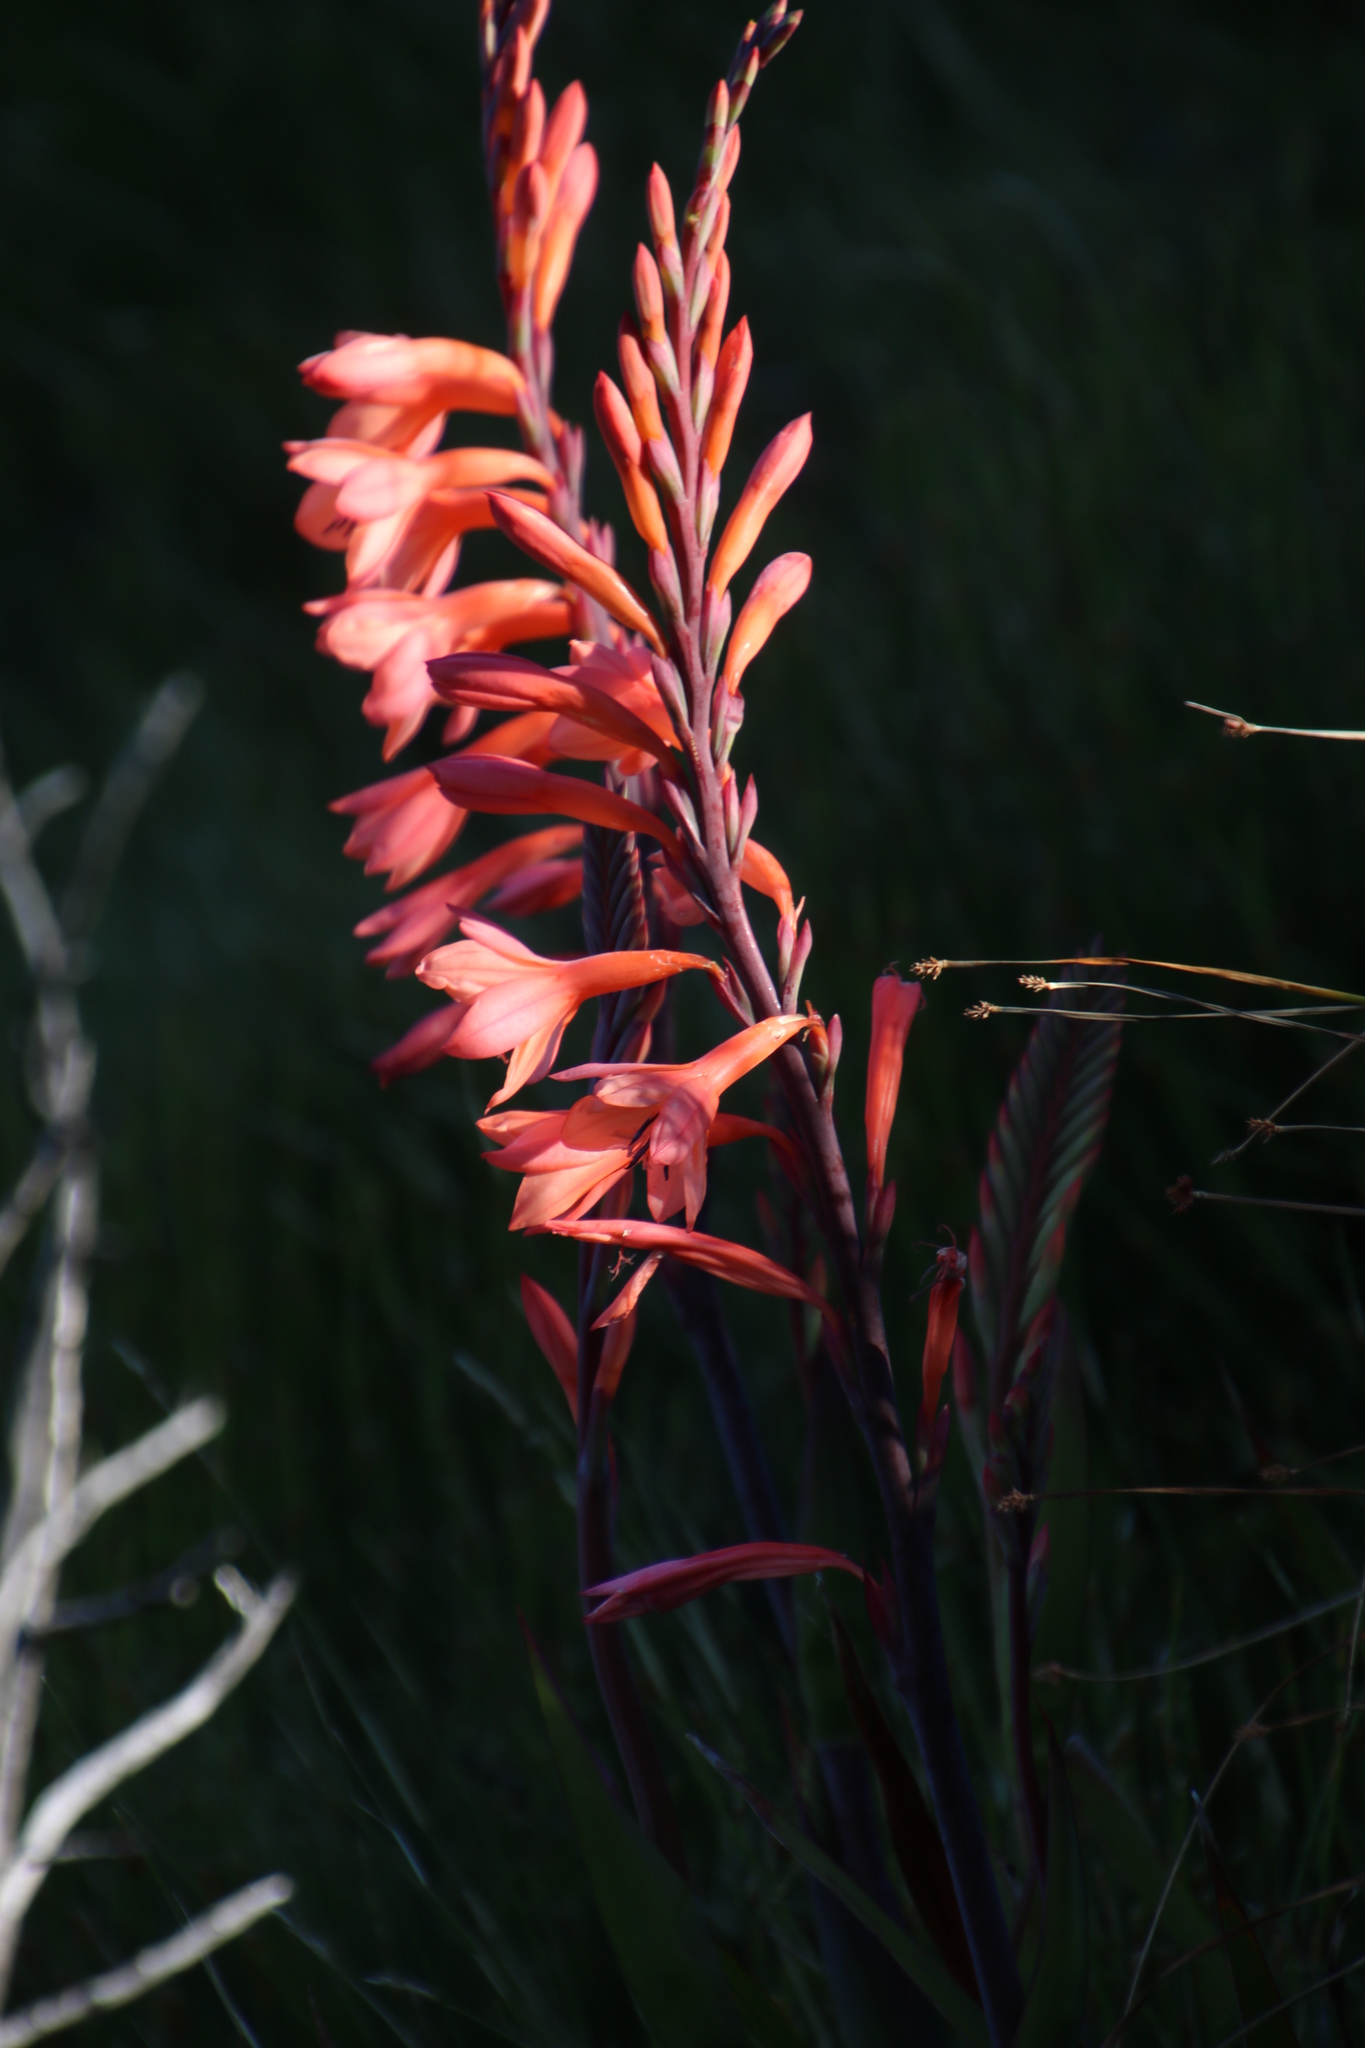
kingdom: Plantae
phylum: Tracheophyta
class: Liliopsida
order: Asparagales
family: Iridaceae
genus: Watsonia
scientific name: Watsonia tabularis
